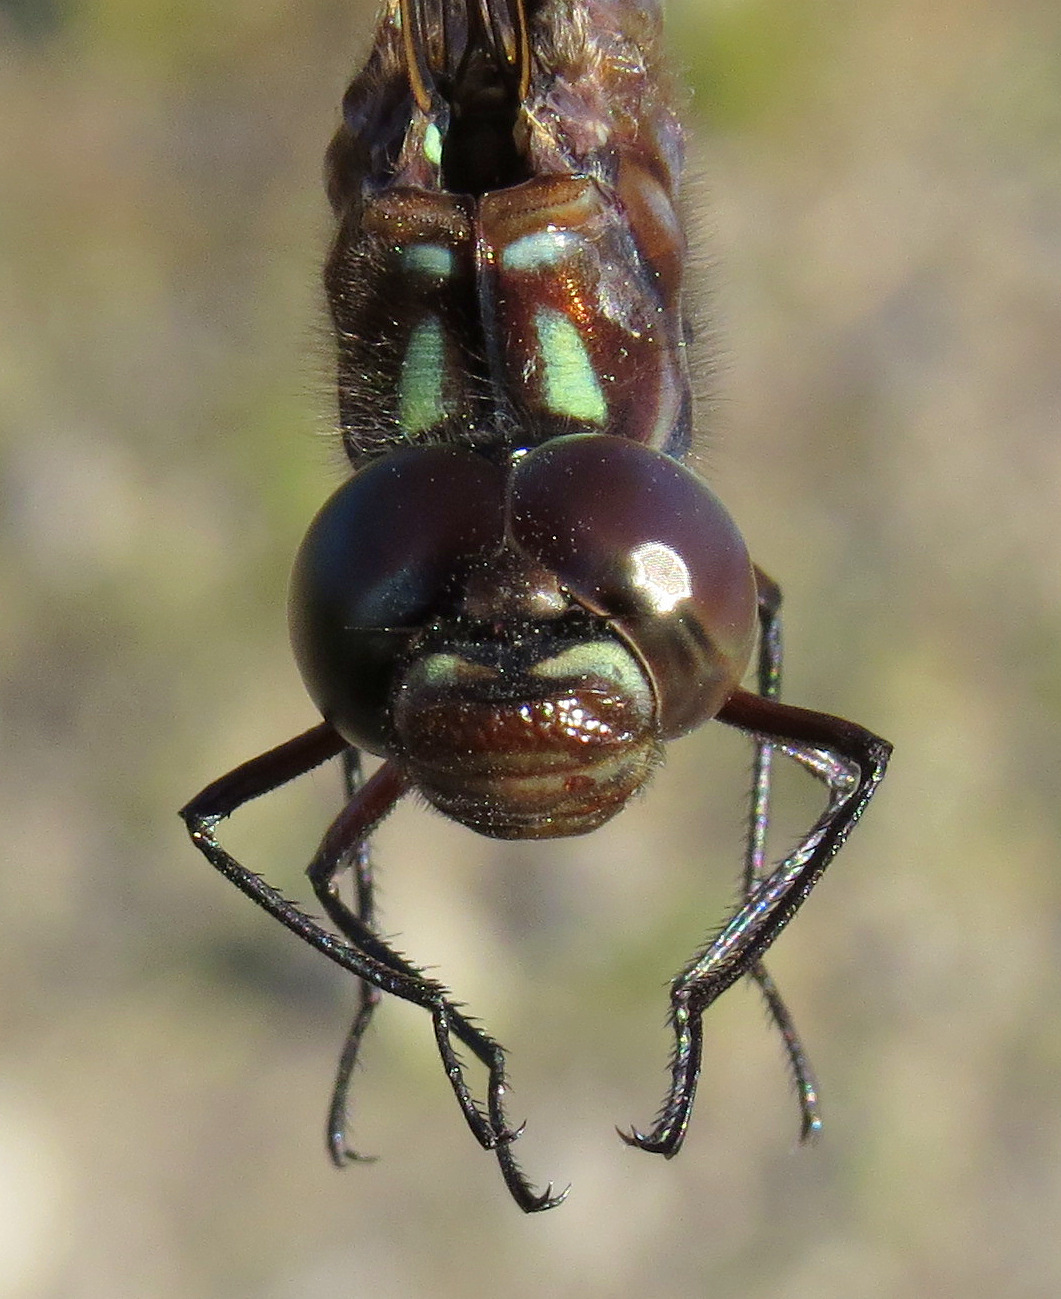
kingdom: Animalia
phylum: Arthropoda
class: Insecta
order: Odonata
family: Aeshnidae
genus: Gomphaeschna
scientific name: Gomphaeschna antilope
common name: Taper-tailed darner
